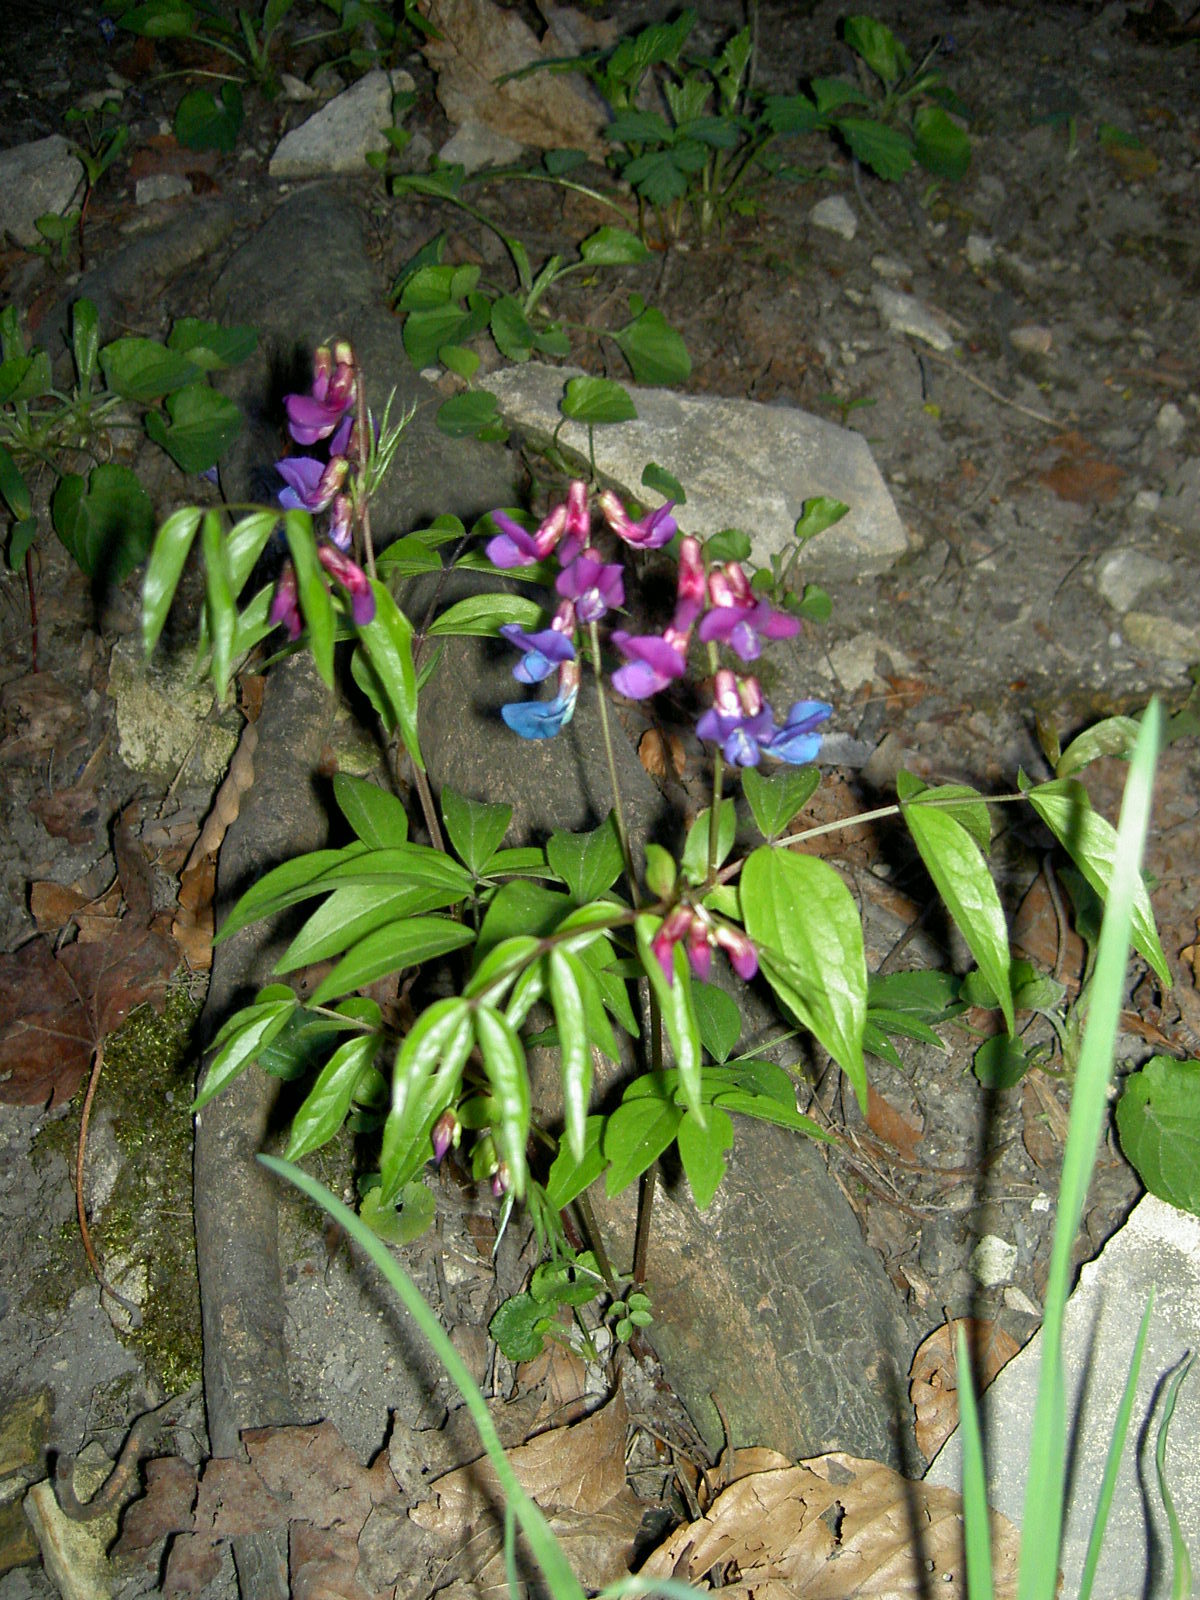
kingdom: Plantae
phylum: Tracheophyta
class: Magnoliopsida
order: Fabales
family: Fabaceae
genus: Lathyrus
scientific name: Lathyrus vernus
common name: Spring pea
